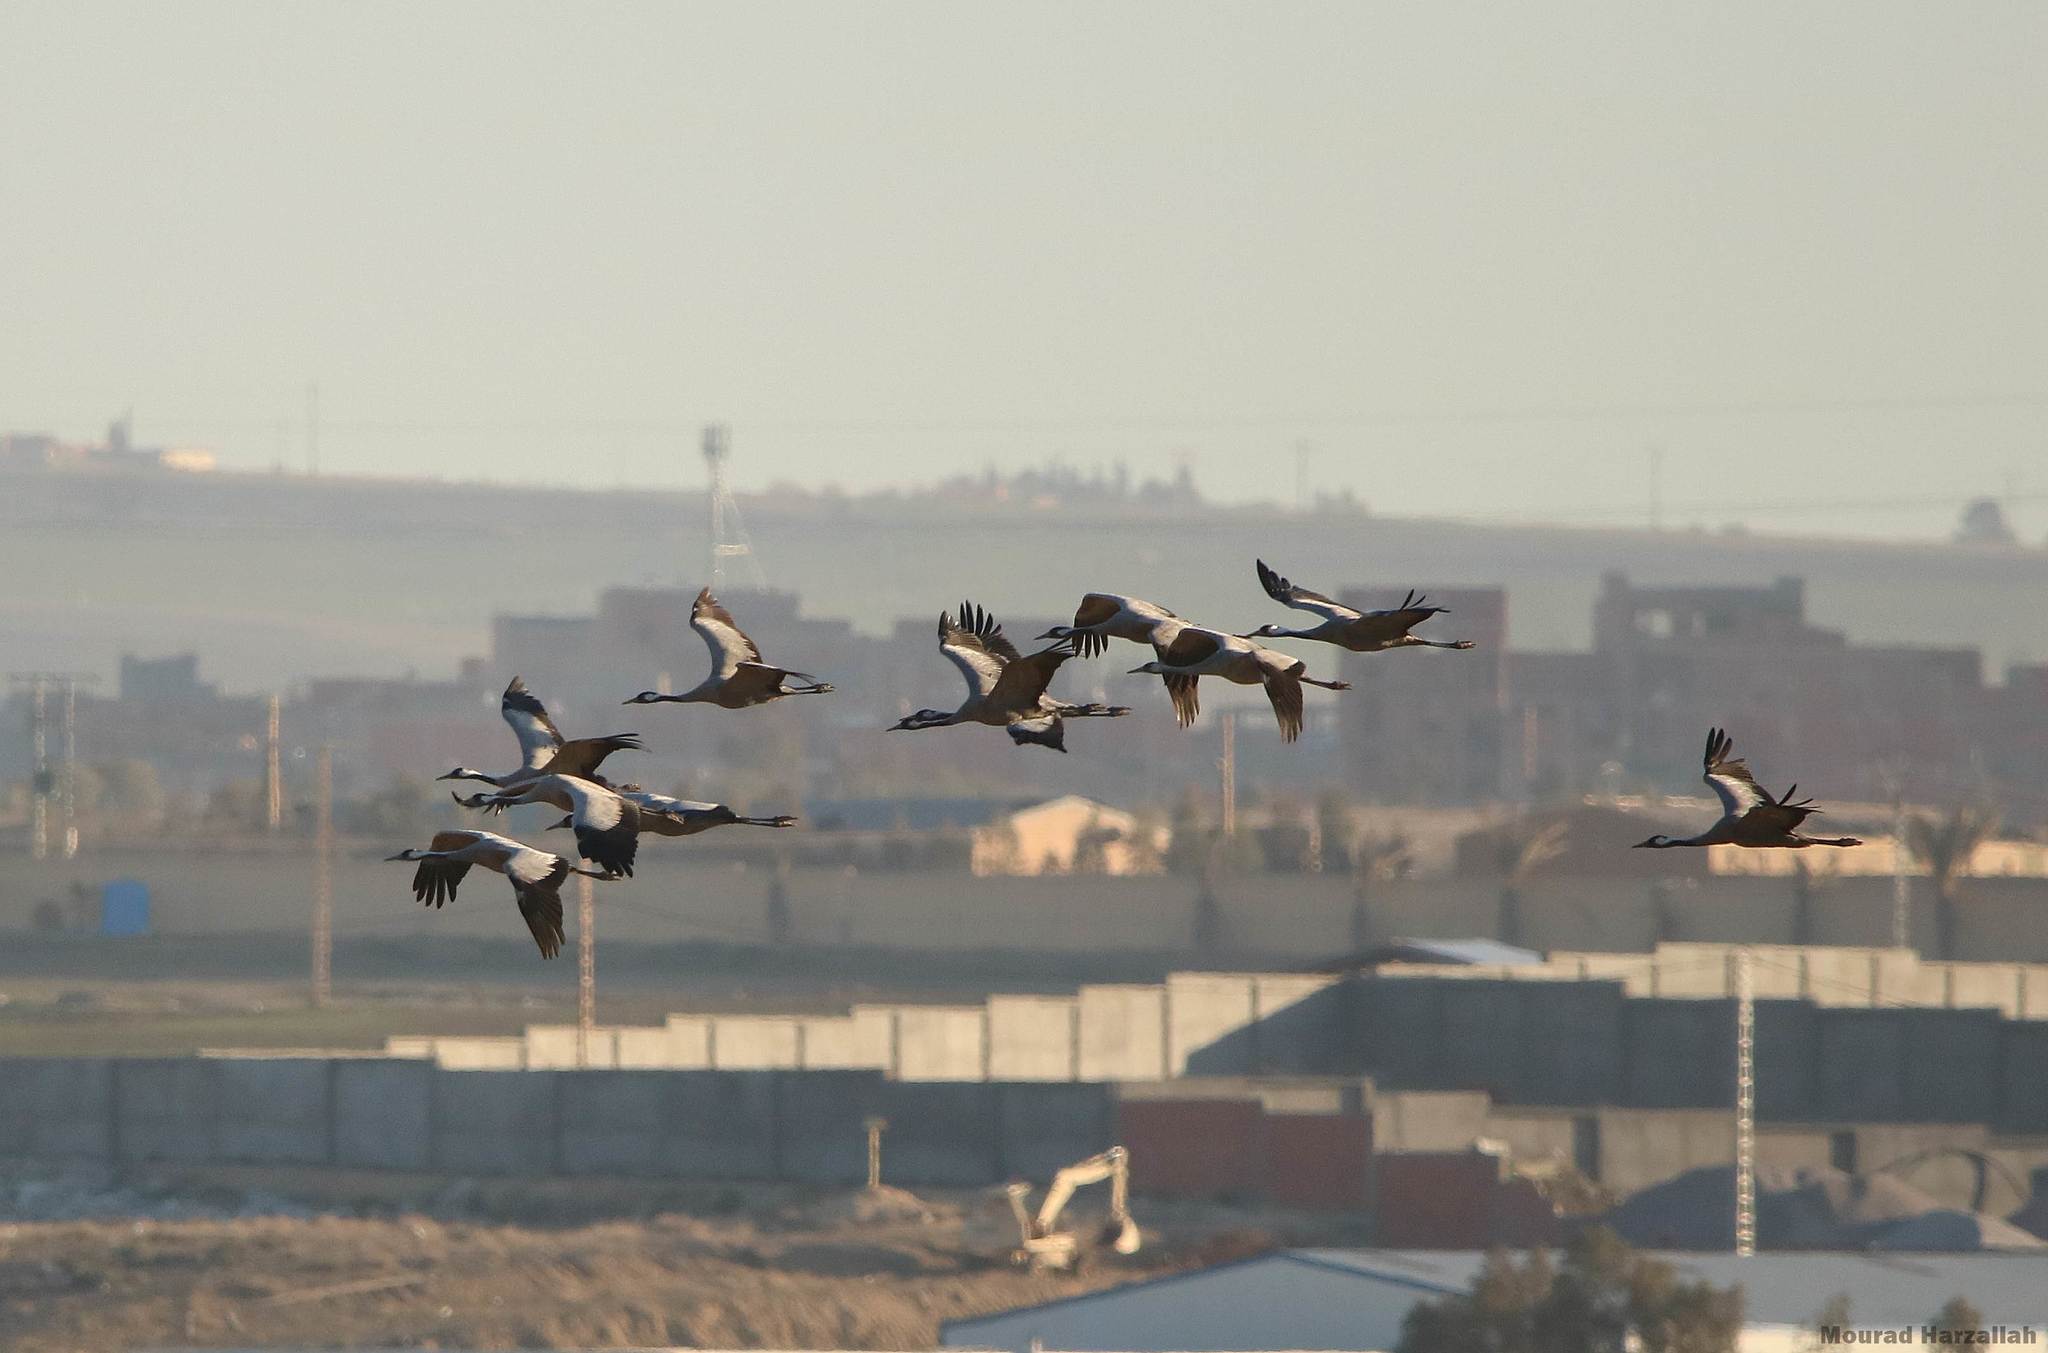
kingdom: Animalia
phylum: Chordata
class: Aves
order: Gruiformes
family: Gruidae
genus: Grus
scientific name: Grus grus
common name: Common crane
